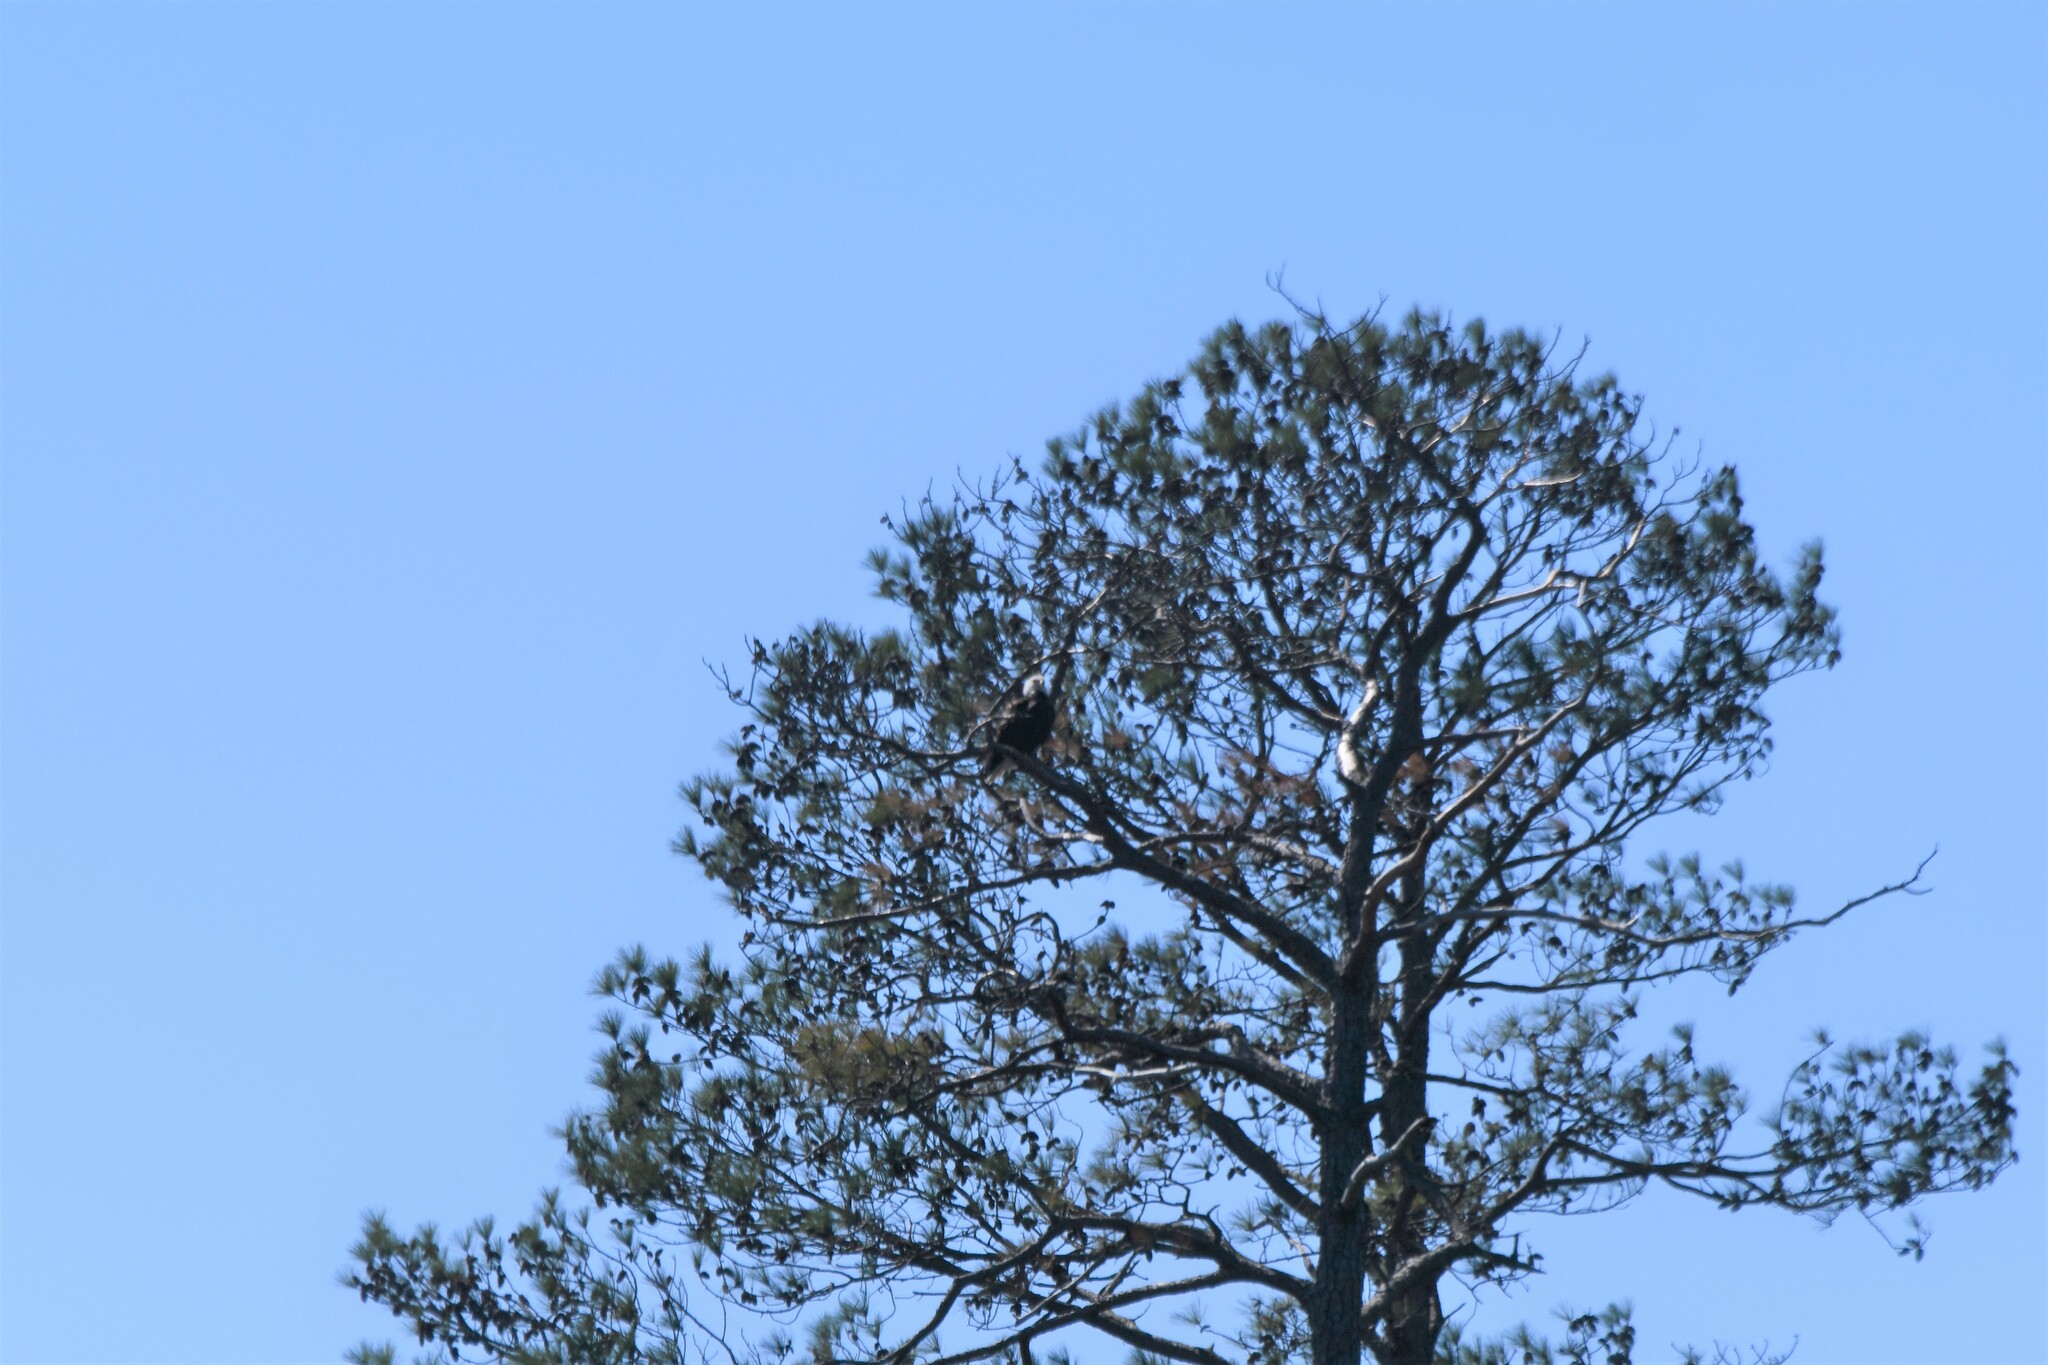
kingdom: Animalia
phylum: Chordata
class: Aves
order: Accipitriformes
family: Accipitridae
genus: Haliaeetus
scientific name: Haliaeetus leucocephalus
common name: Bald eagle
